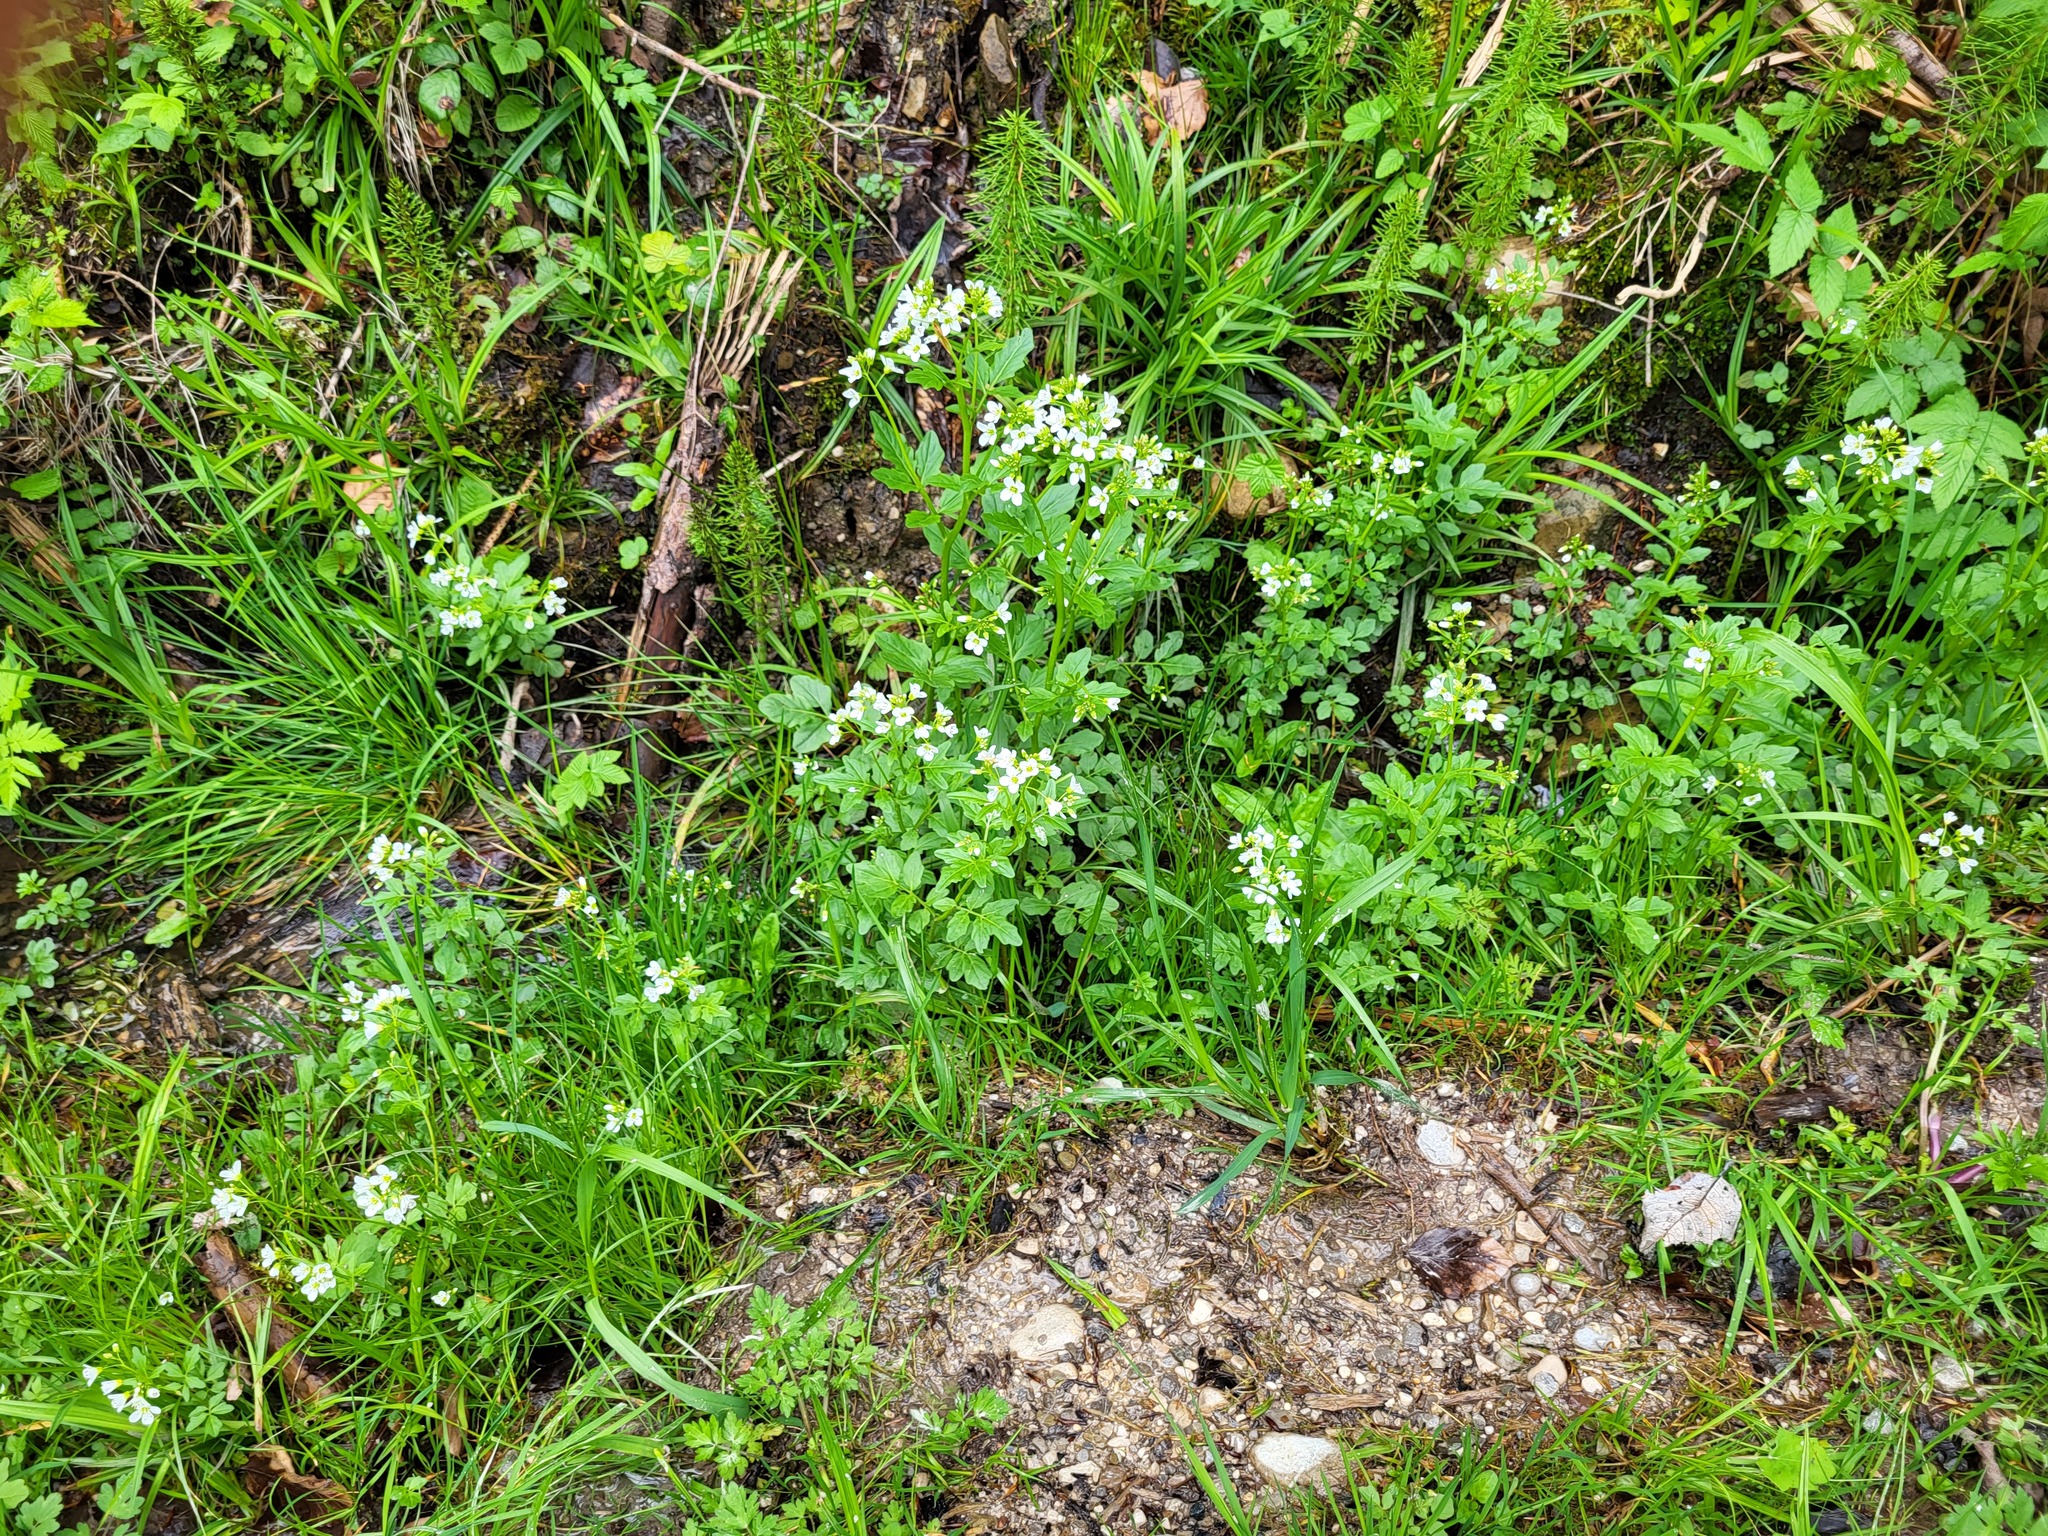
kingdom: Plantae
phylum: Tracheophyta
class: Magnoliopsida
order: Brassicales
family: Brassicaceae
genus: Cardamine
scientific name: Cardamine amara
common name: Large bitter-cress
